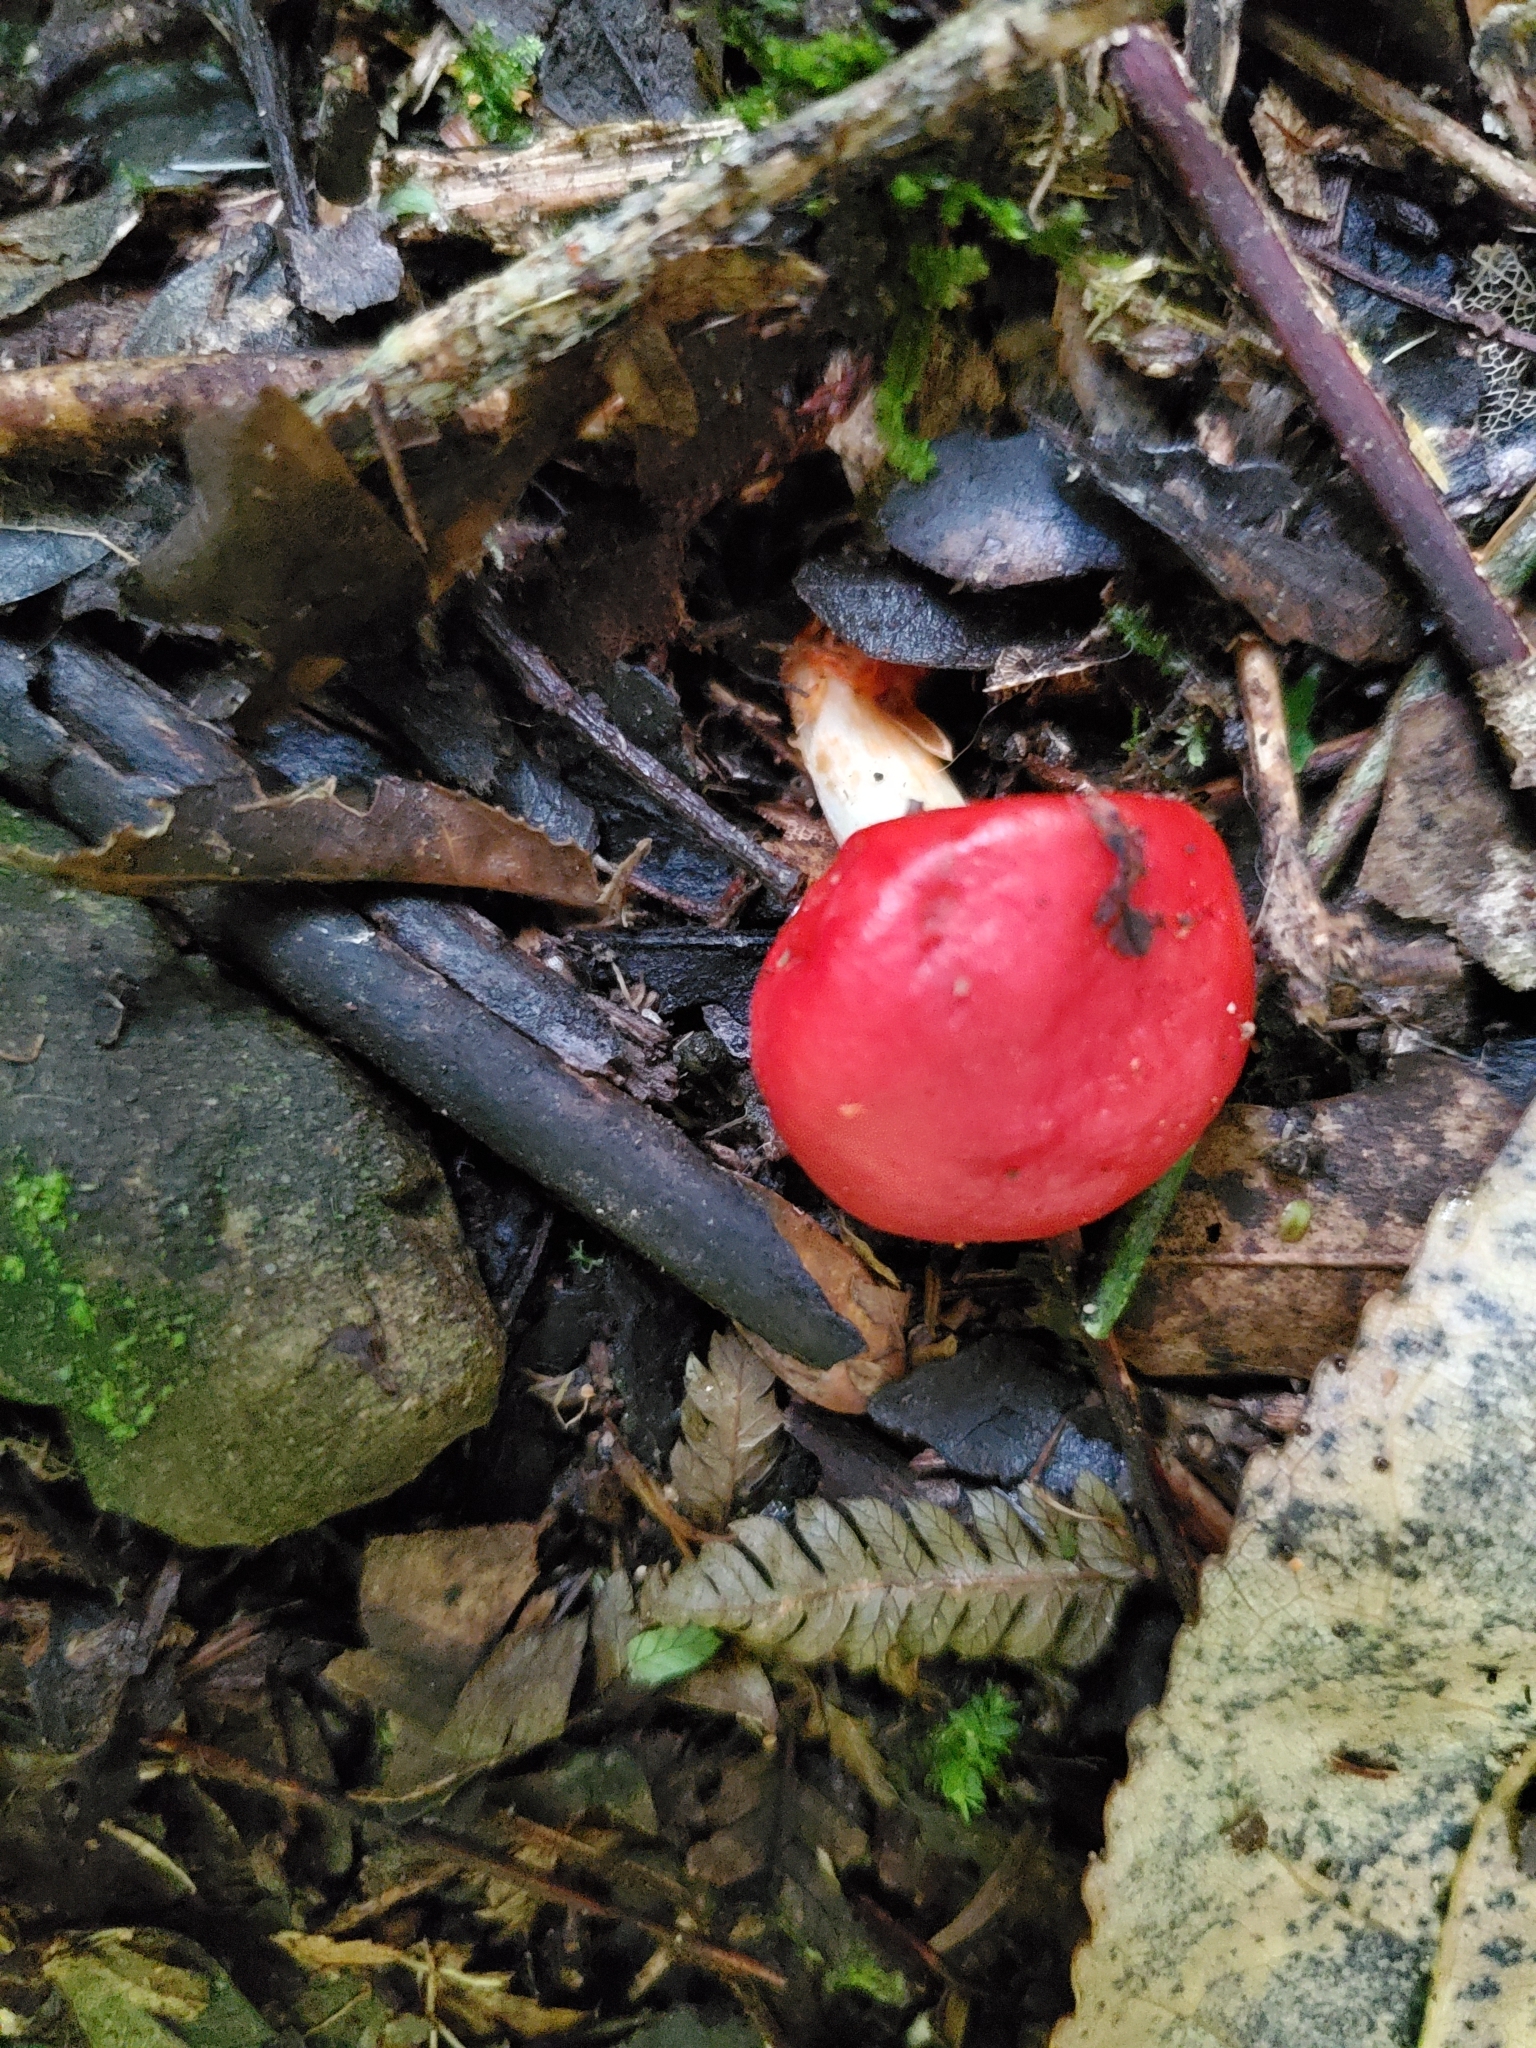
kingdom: Fungi
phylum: Basidiomycota
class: Agaricomycetes
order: Agaricales
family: Strophariaceae
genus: Leratiomyces
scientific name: Leratiomyces erythrocephalus
